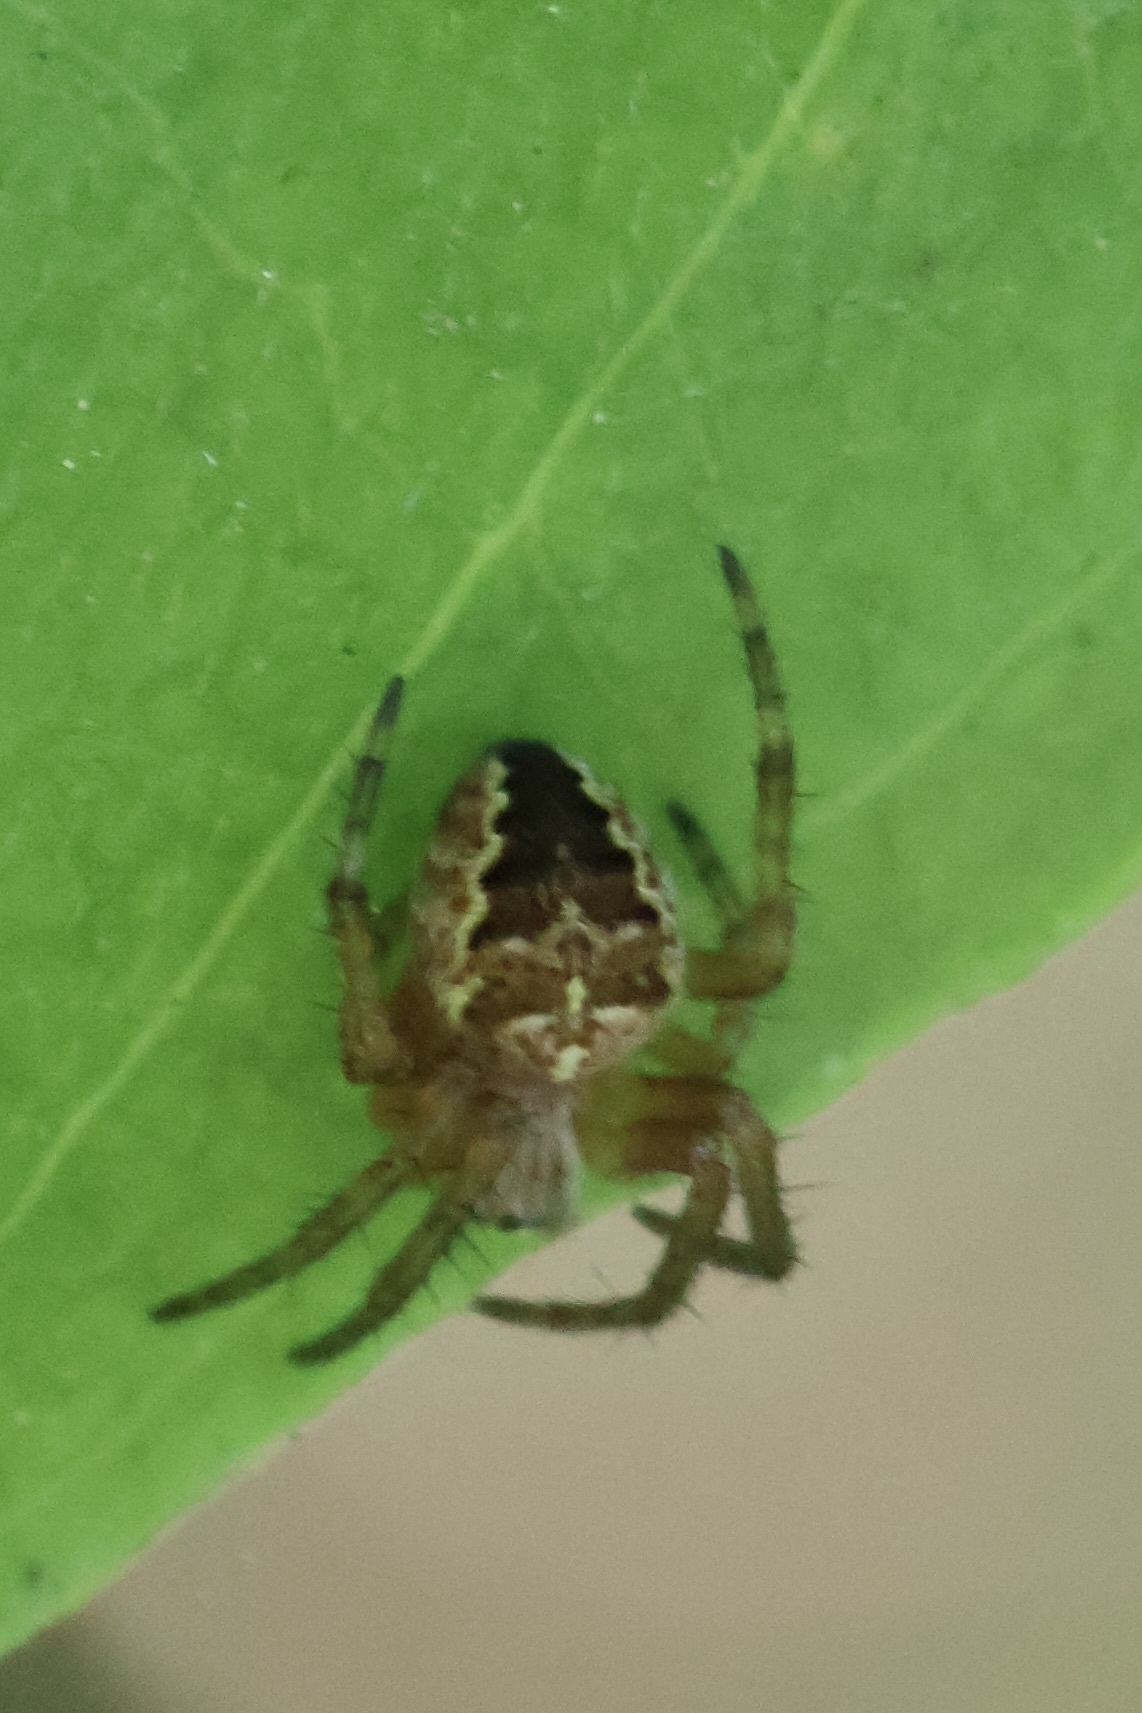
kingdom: Animalia
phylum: Arthropoda
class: Arachnida
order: Araneae
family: Araneidae
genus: Araneus
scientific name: Araneus diadematus
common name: Cross orbweaver
